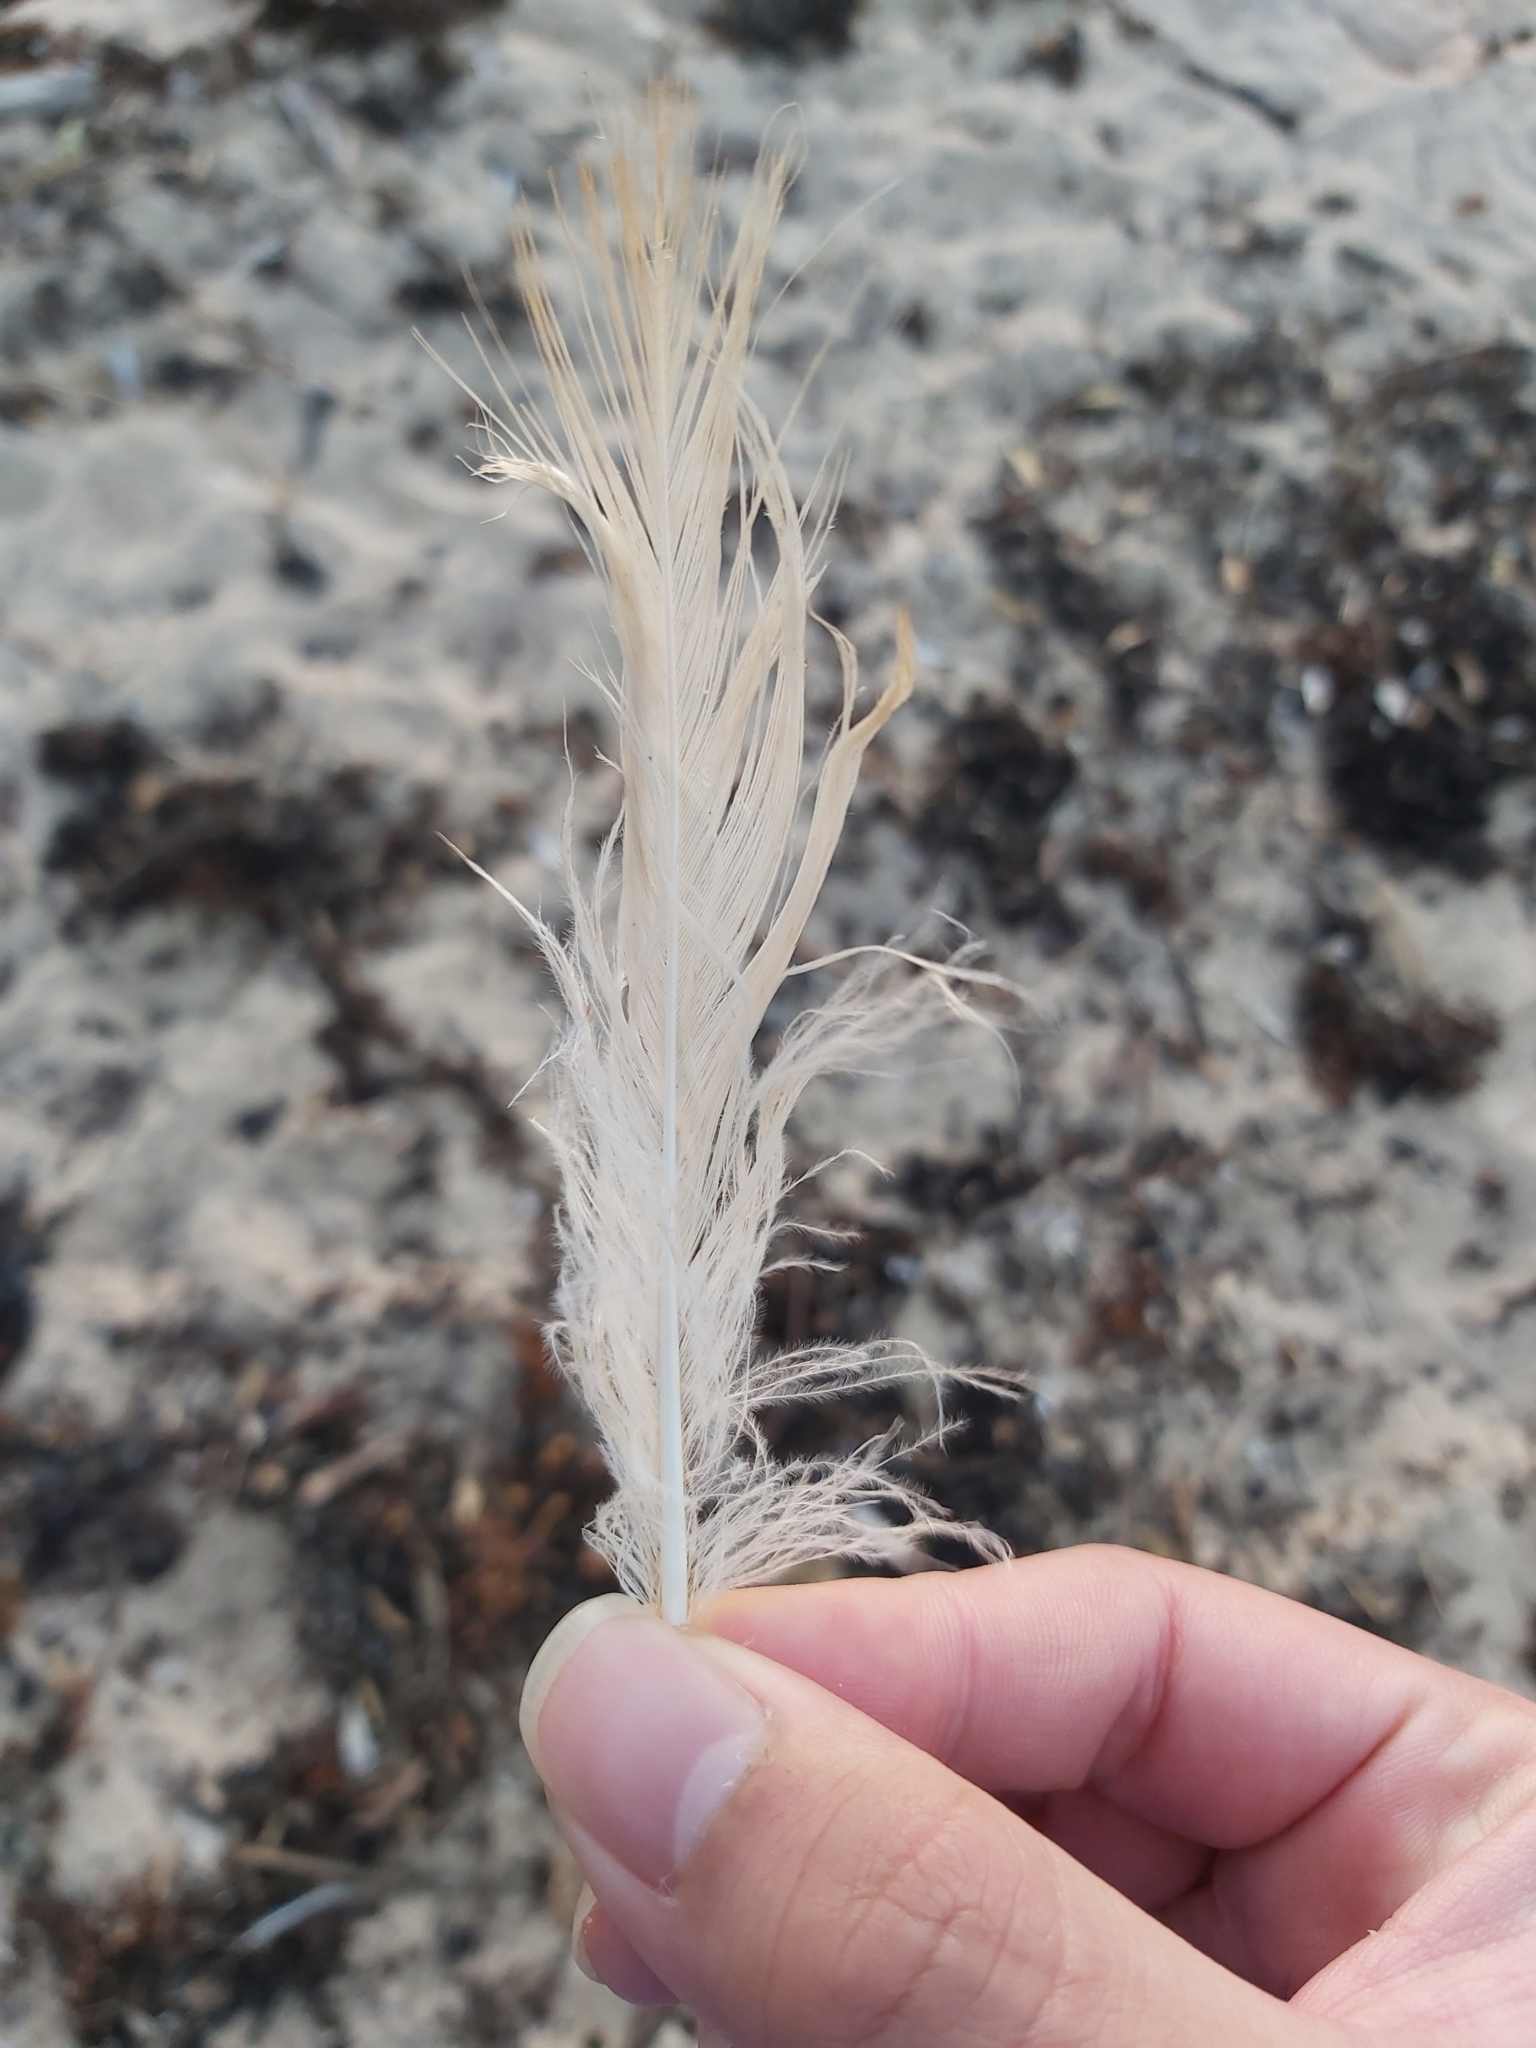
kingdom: Animalia
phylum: Chordata
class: Aves
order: Charadriiformes
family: Laridae
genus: Chroicocephalus
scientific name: Chroicocephalus novaehollandiae
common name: Silver gull
